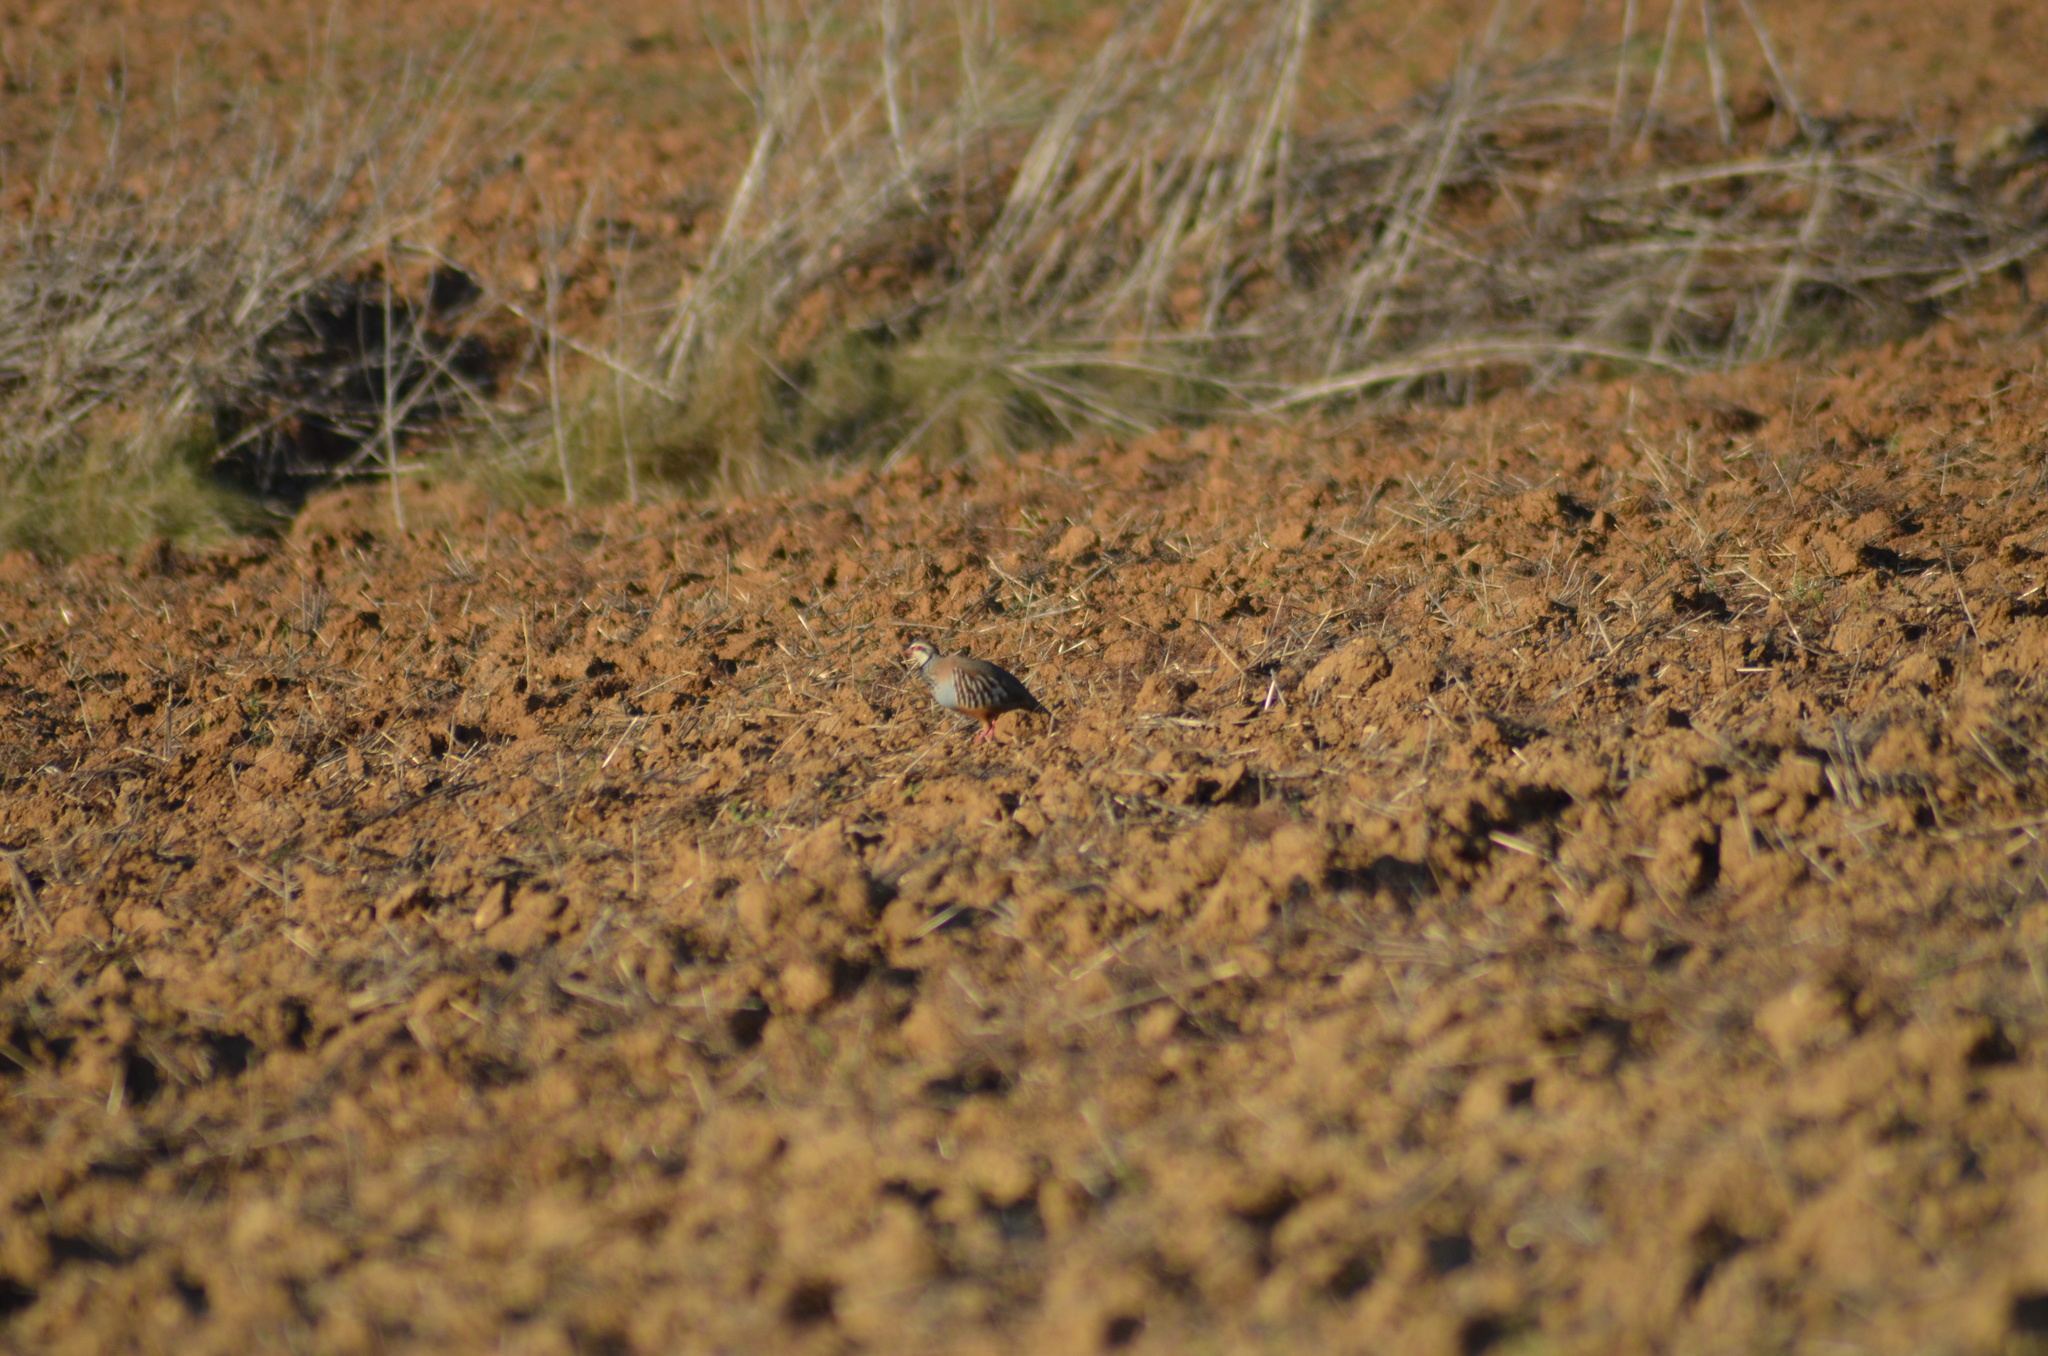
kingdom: Animalia
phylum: Chordata
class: Aves
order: Galliformes
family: Phasianidae
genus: Alectoris
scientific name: Alectoris rufa
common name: Red-legged partridge
